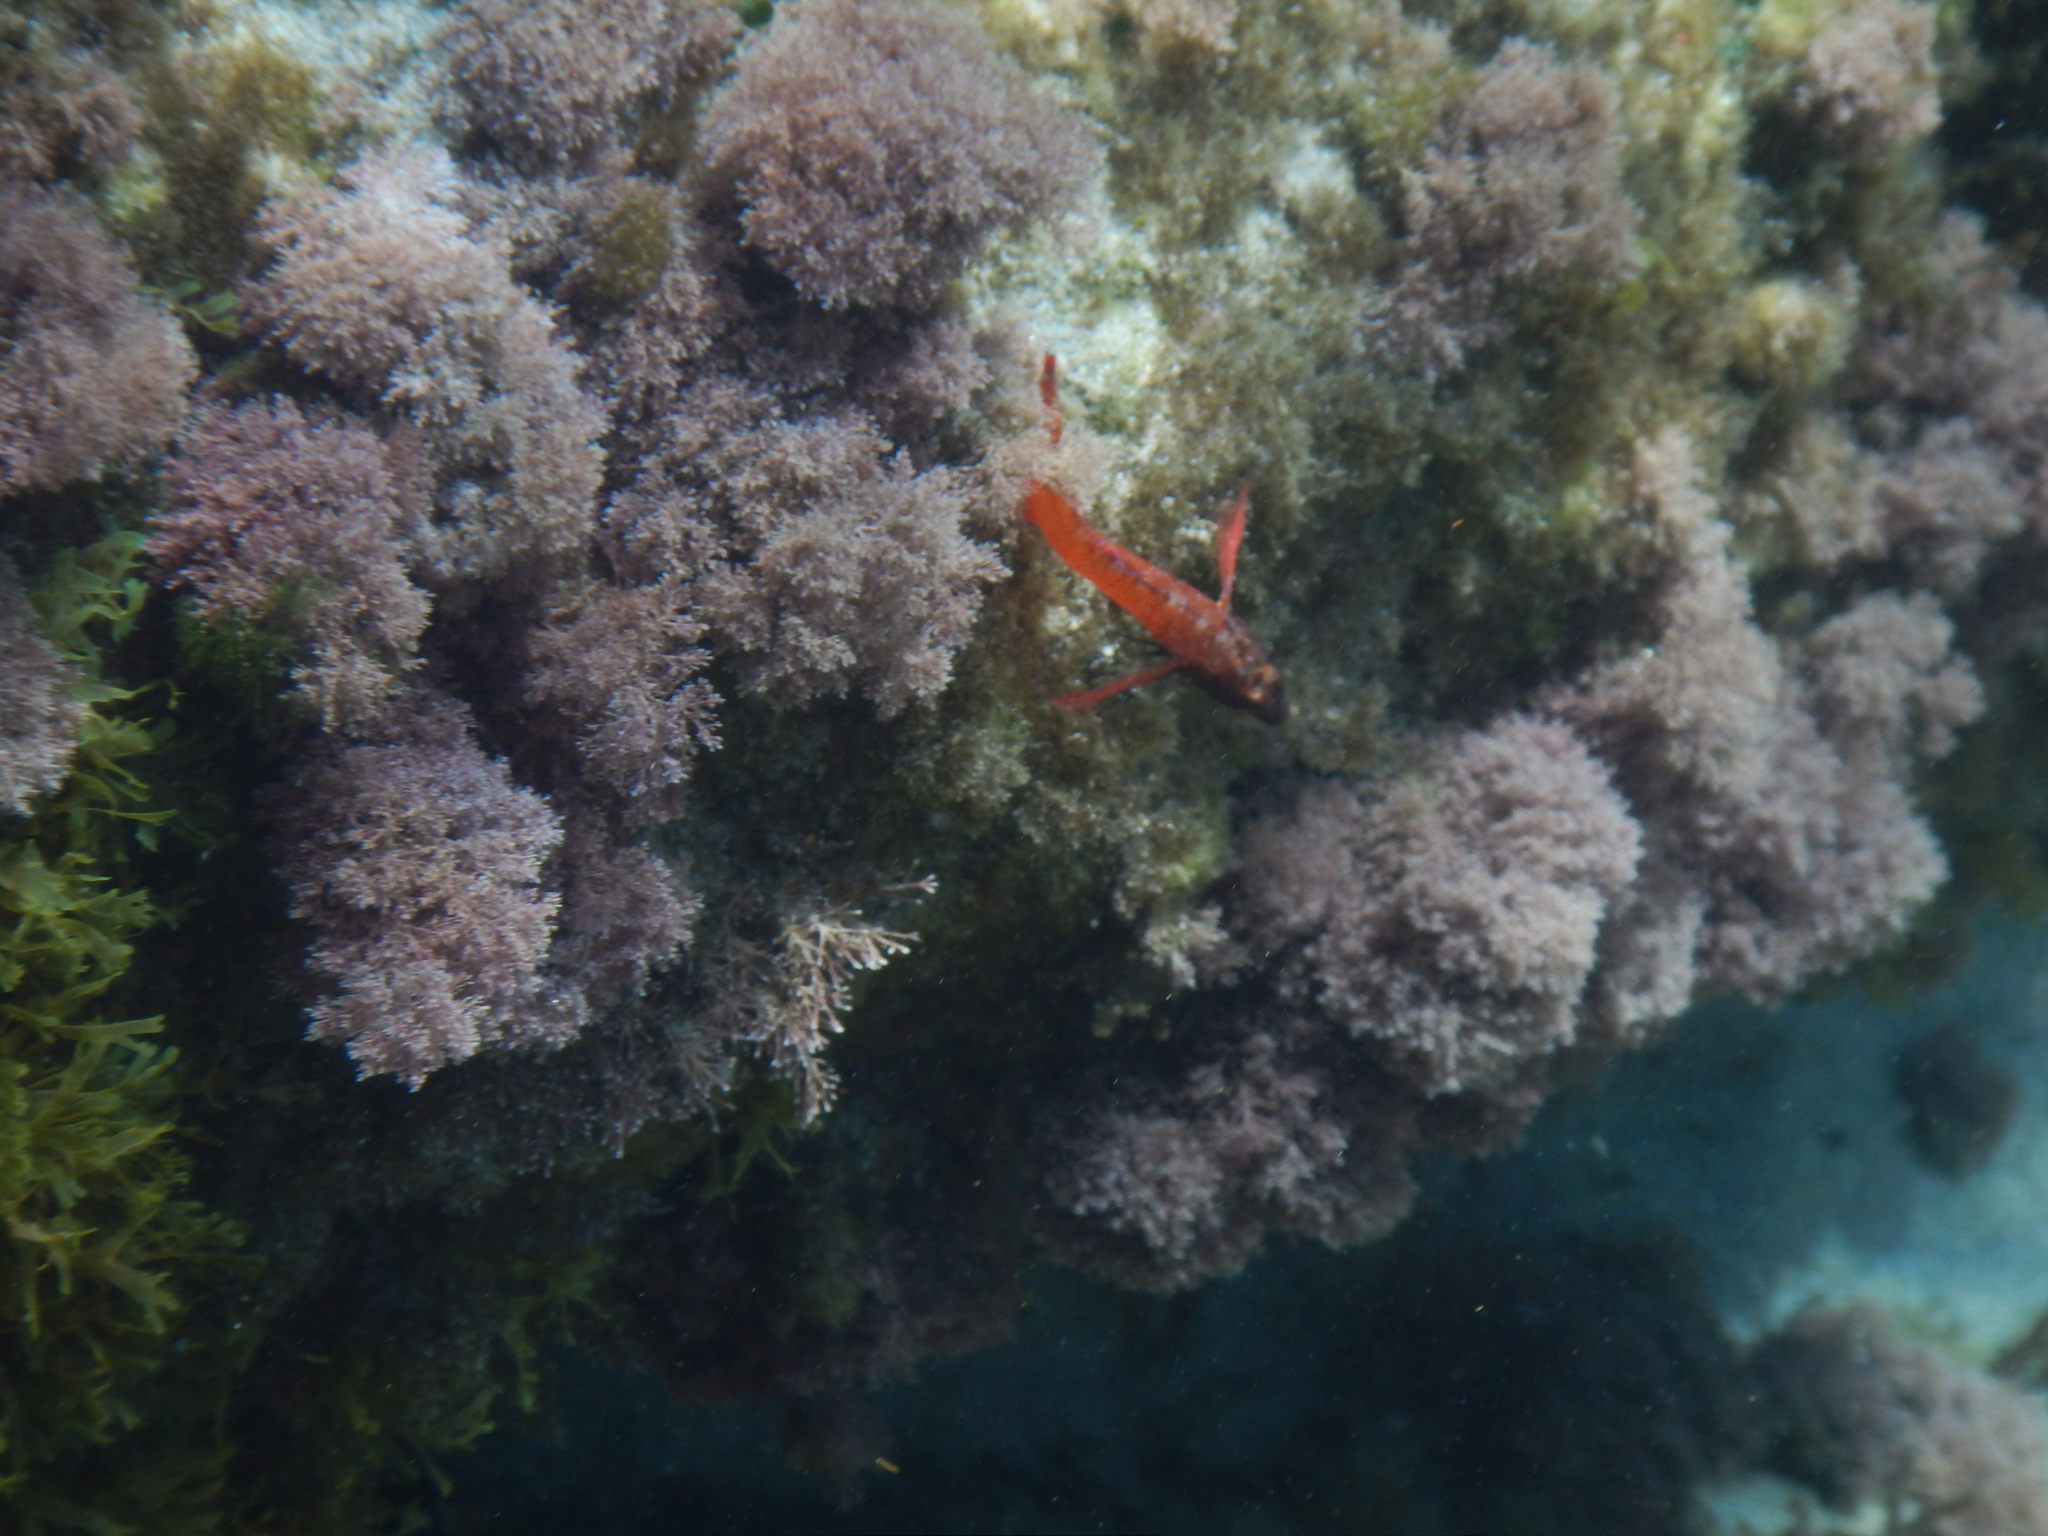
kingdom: Animalia
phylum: Chordata
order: Perciformes
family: Tripterygiidae
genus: Tripterygion
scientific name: Tripterygion tripteronotum
